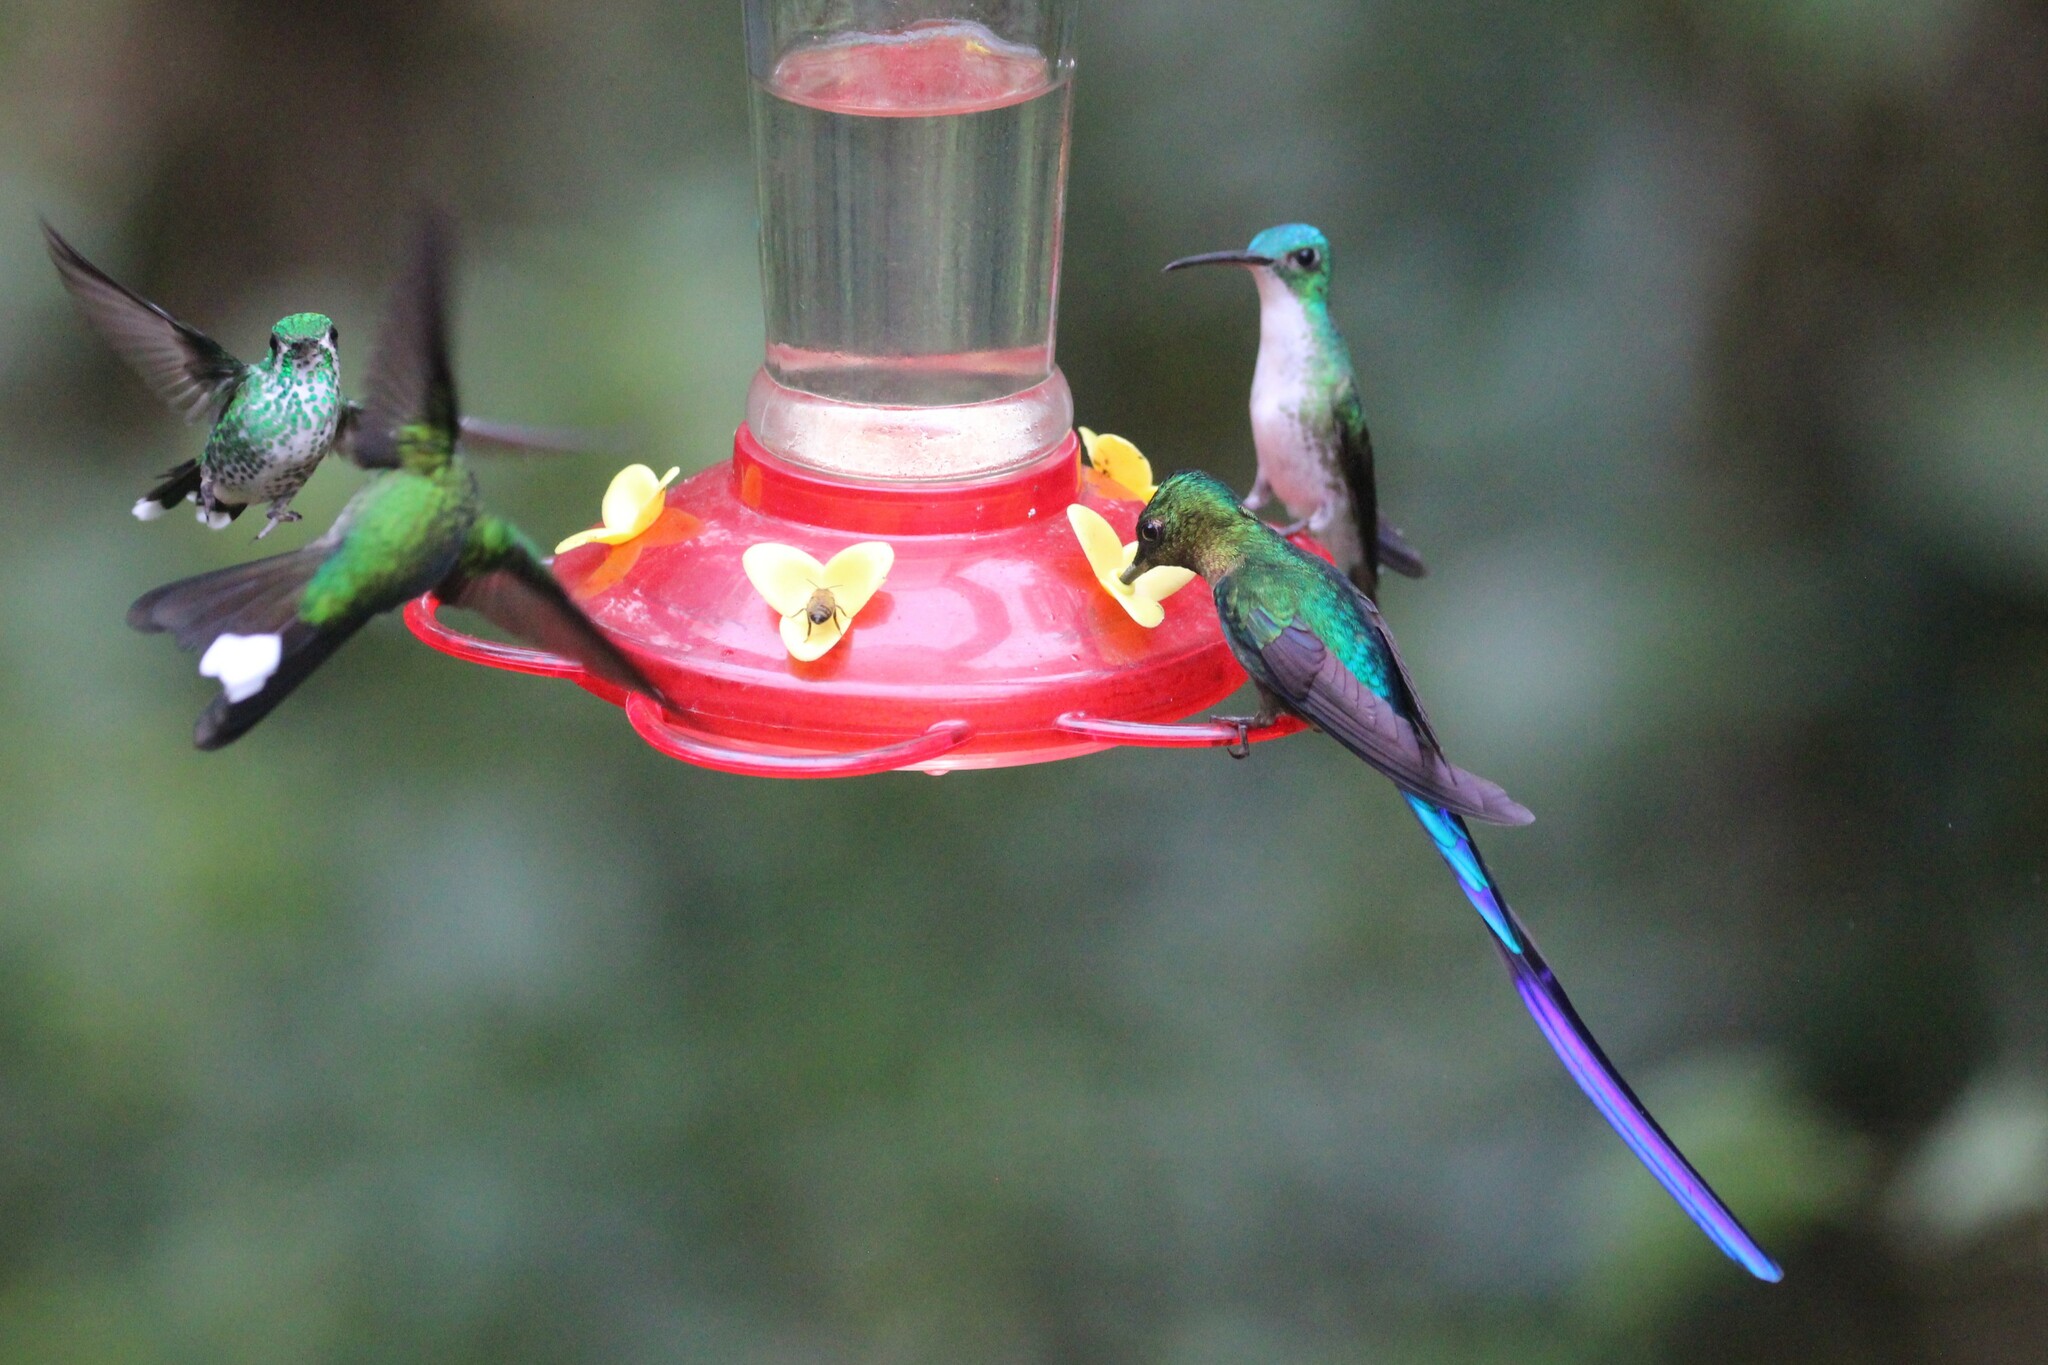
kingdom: Animalia
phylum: Chordata
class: Aves
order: Apodiformes
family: Trochilidae
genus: Urosticte
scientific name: Urosticte benjamini
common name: Purple-bibbed whitetip
